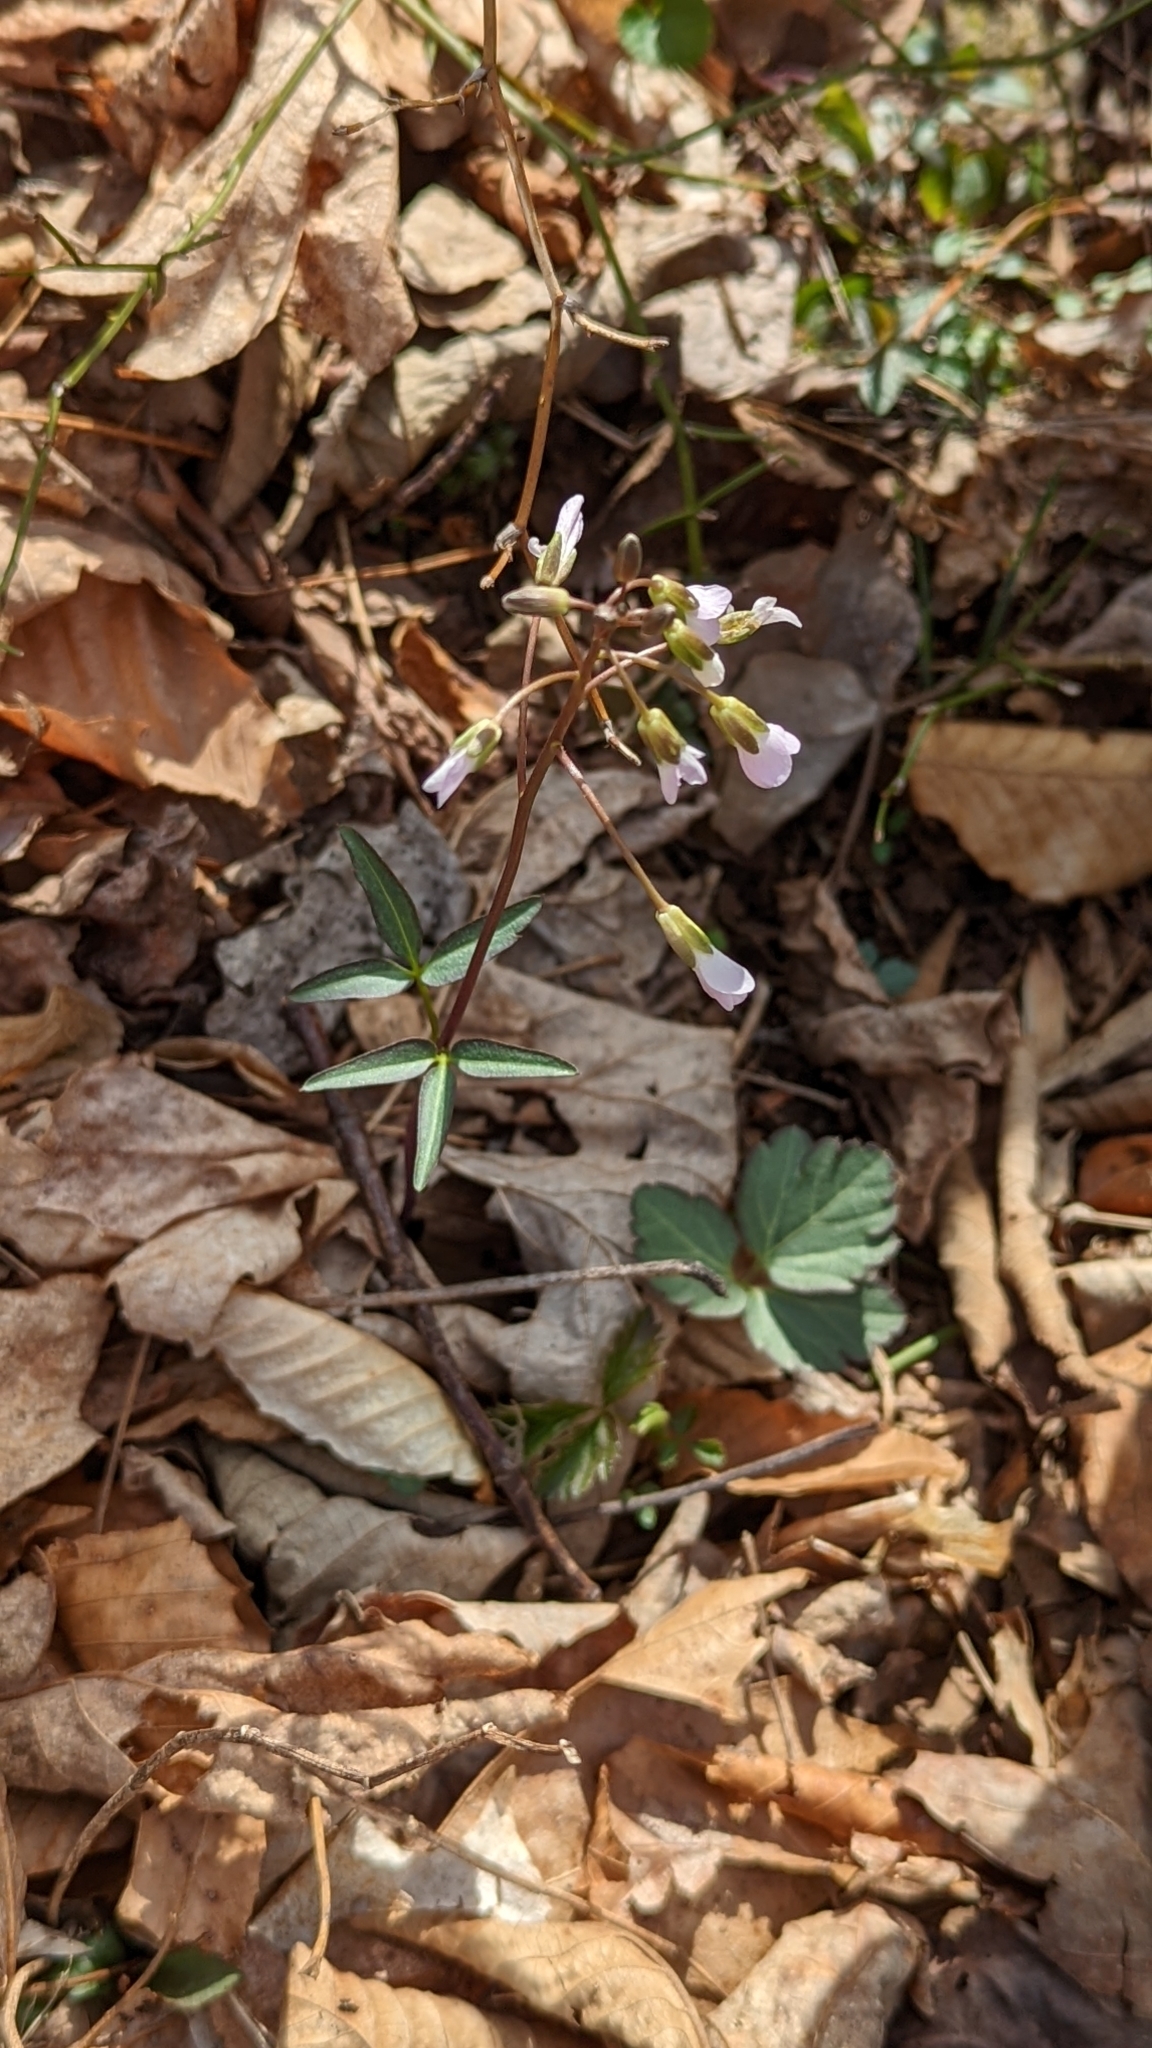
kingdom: Plantae
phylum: Tracheophyta
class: Magnoliopsida
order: Brassicales
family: Brassicaceae
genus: Cardamine
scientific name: Cardamine angustata
